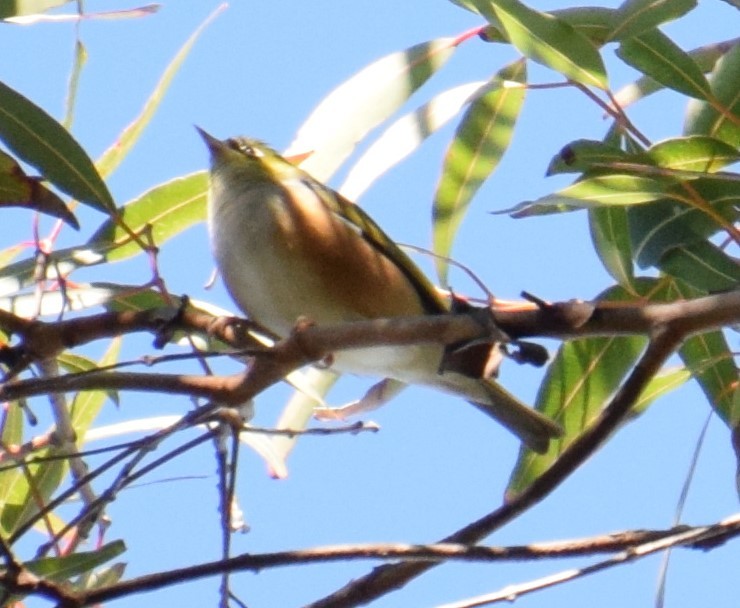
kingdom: Animalia
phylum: Chordata
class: Aves
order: Passeriformes
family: Zosteropidae
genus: Zosterops
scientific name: Zosterops lateralis
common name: Silvereye
